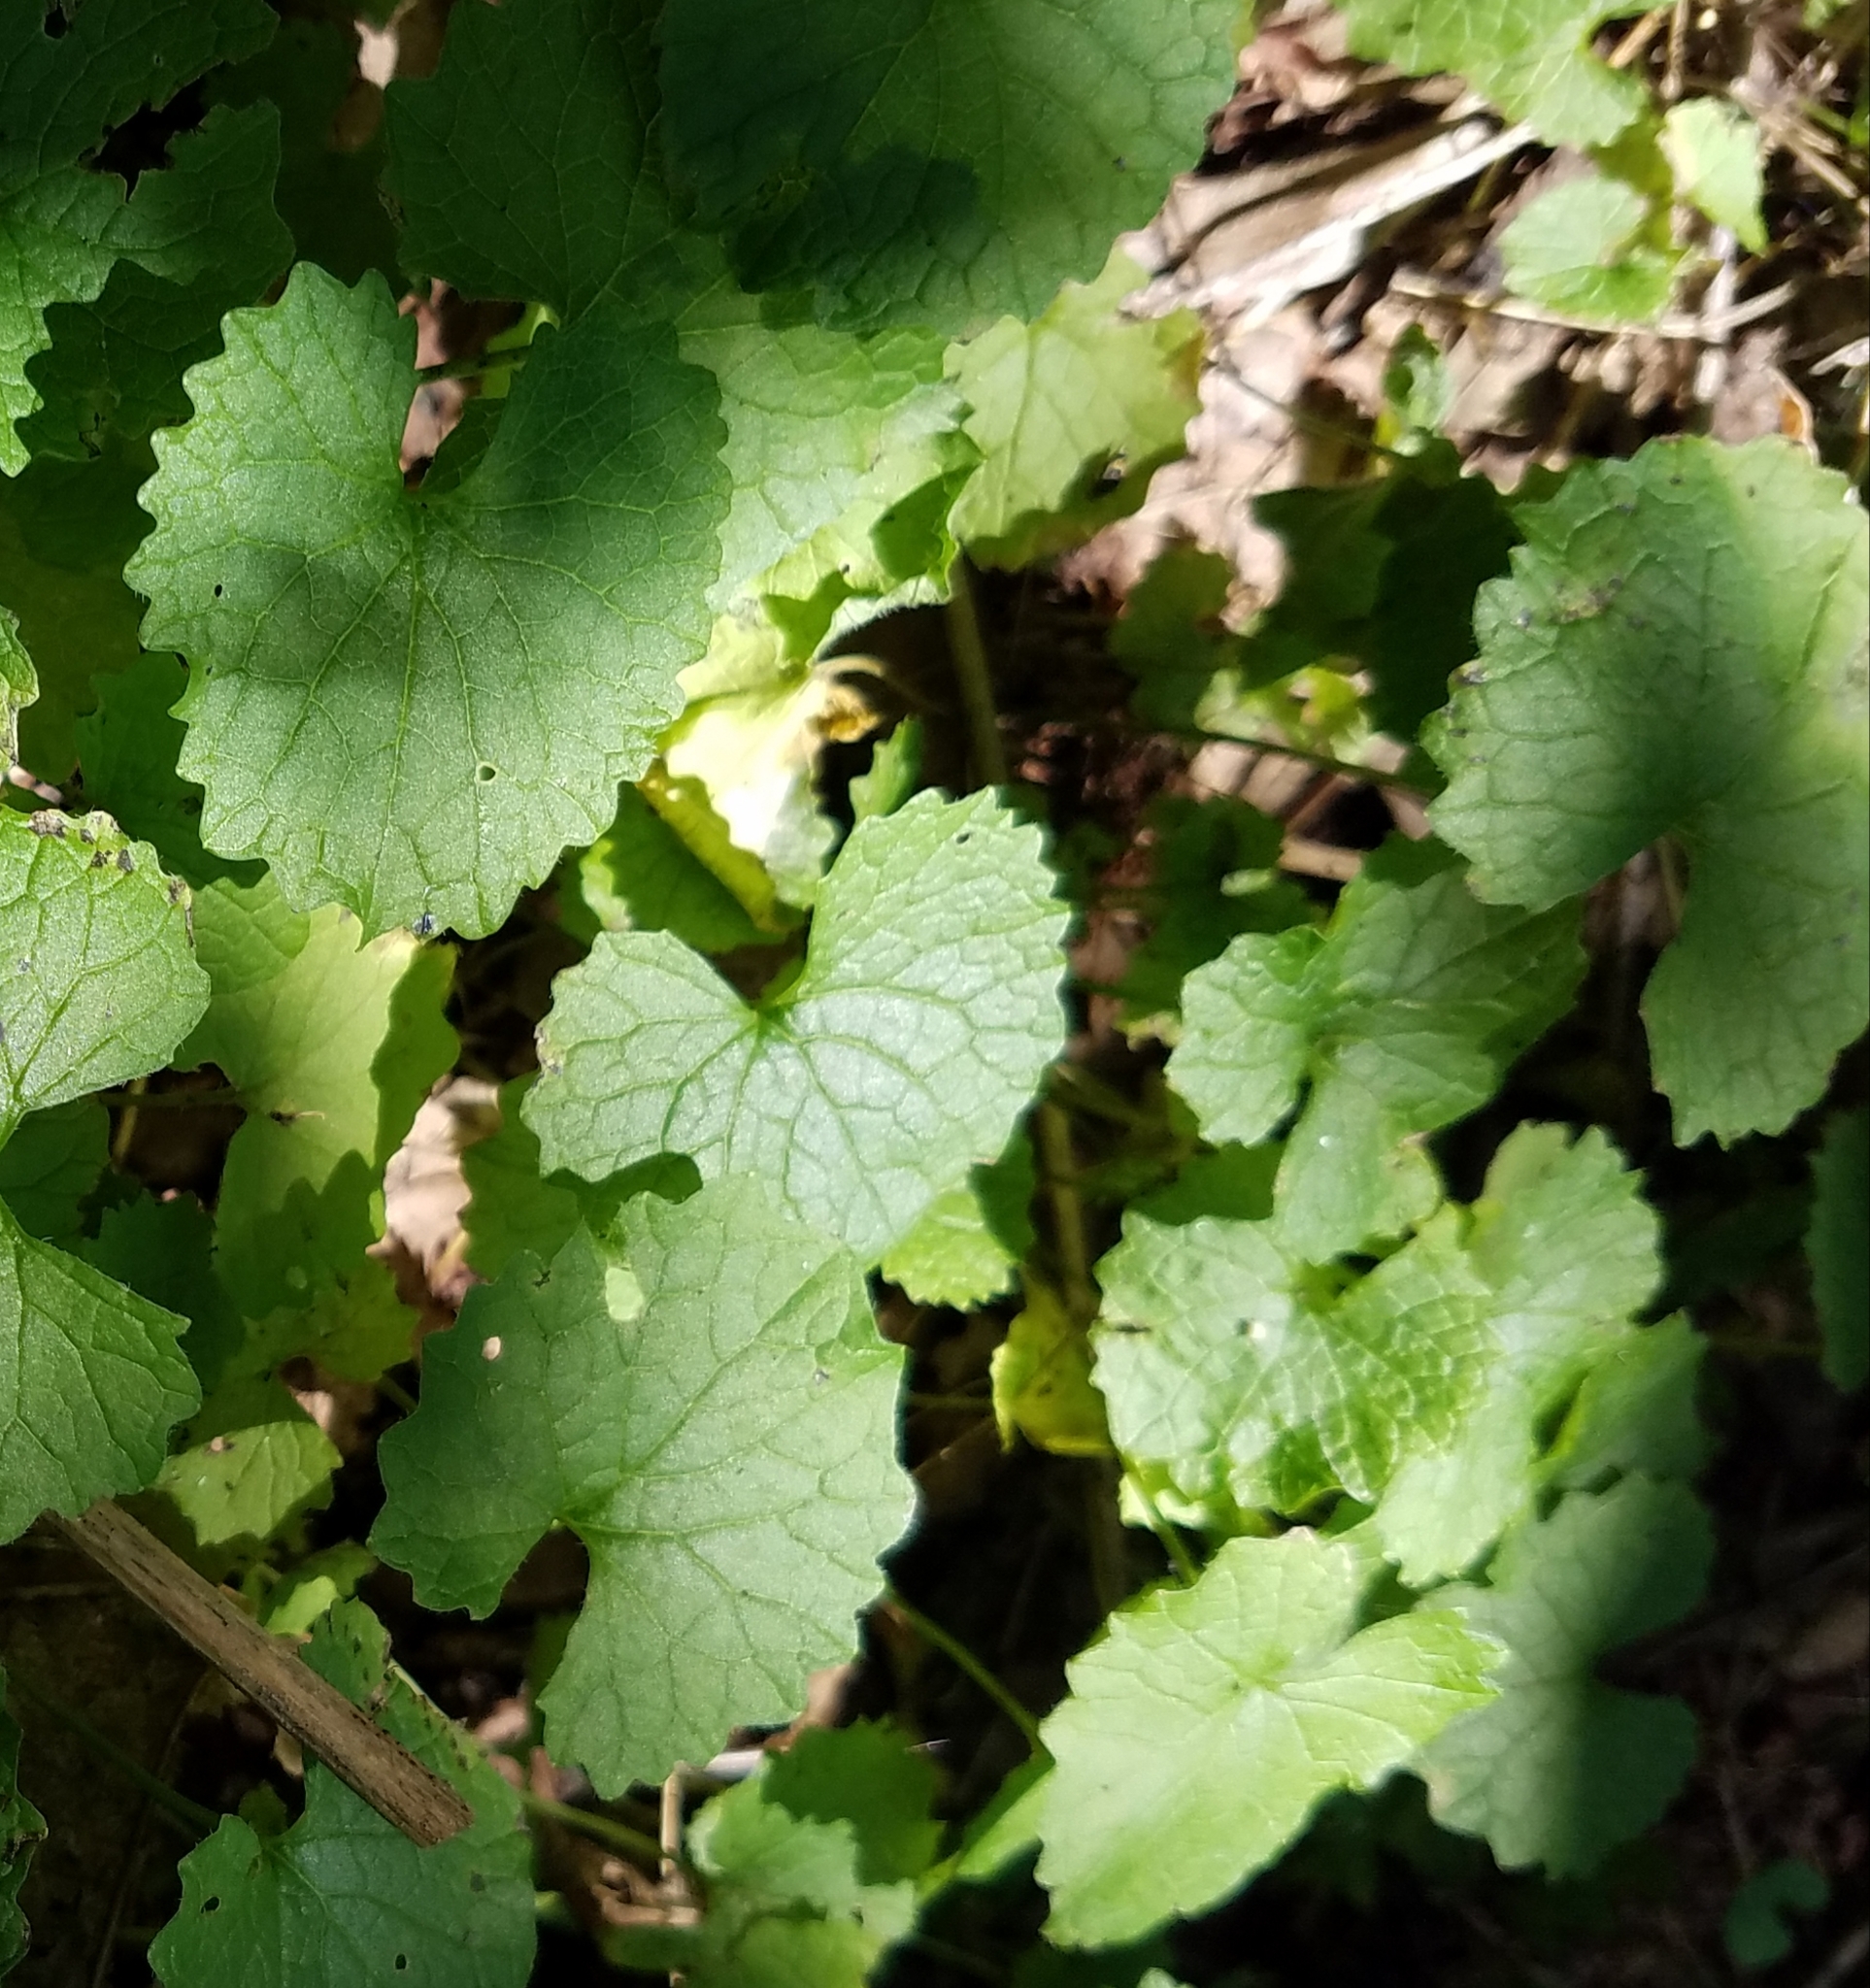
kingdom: Plantae
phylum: Tracheophyta
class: Magnoliopsida
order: Brassicales
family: Brassicaceae
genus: Alliaria
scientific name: Alliaria petiolata
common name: Garlic mustard
